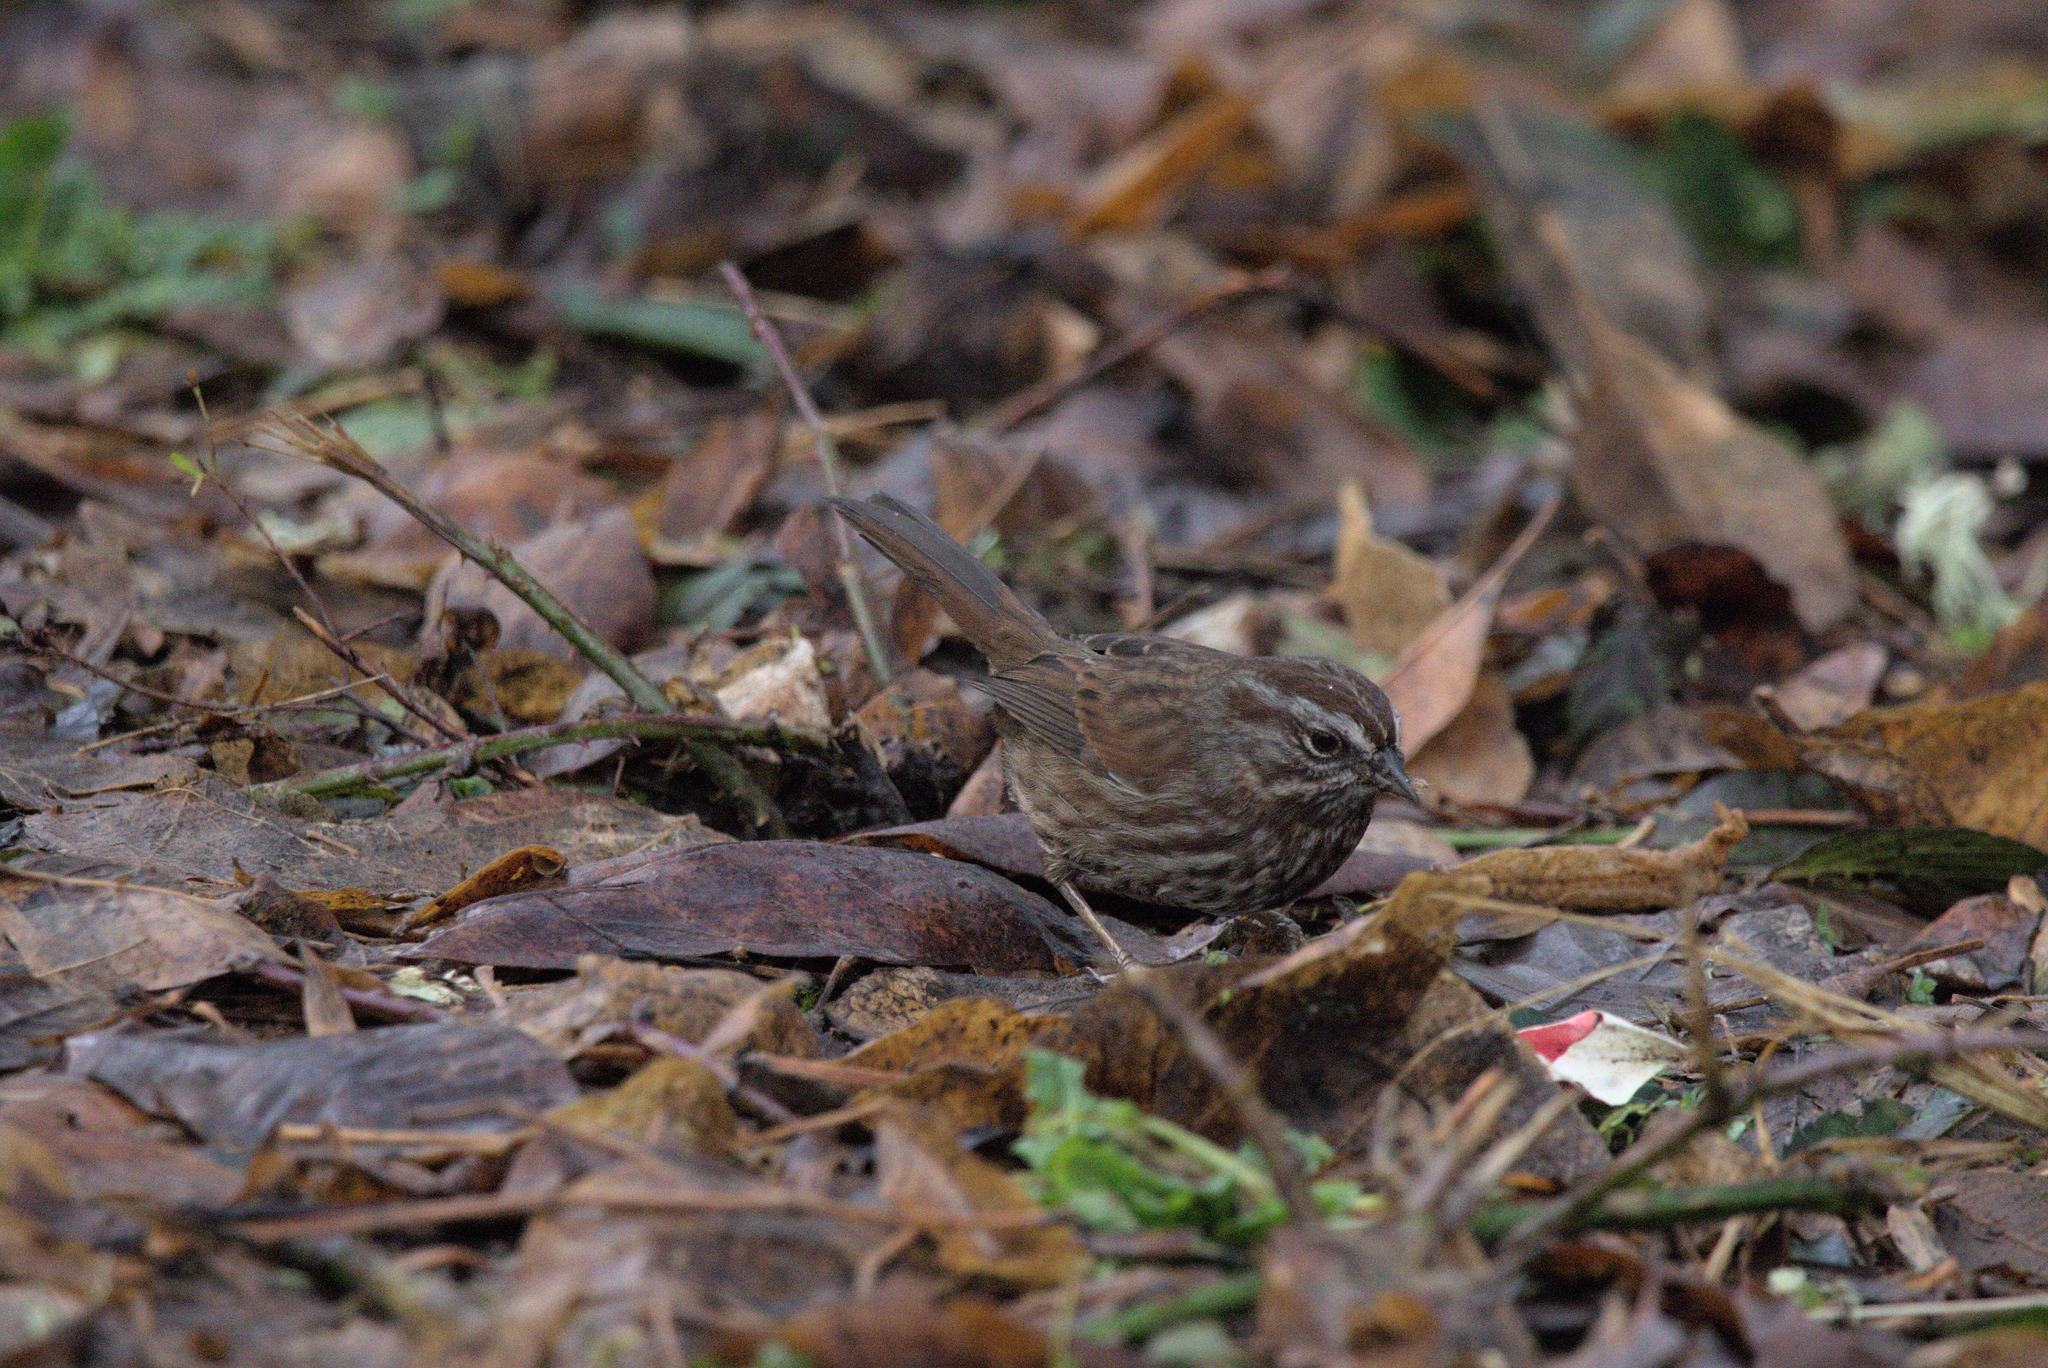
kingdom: Animalia
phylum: Chordata
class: Aves
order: Passeriformes
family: Passerellidae
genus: Melospiza
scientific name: Melospiza melodia
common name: Song sparrow
